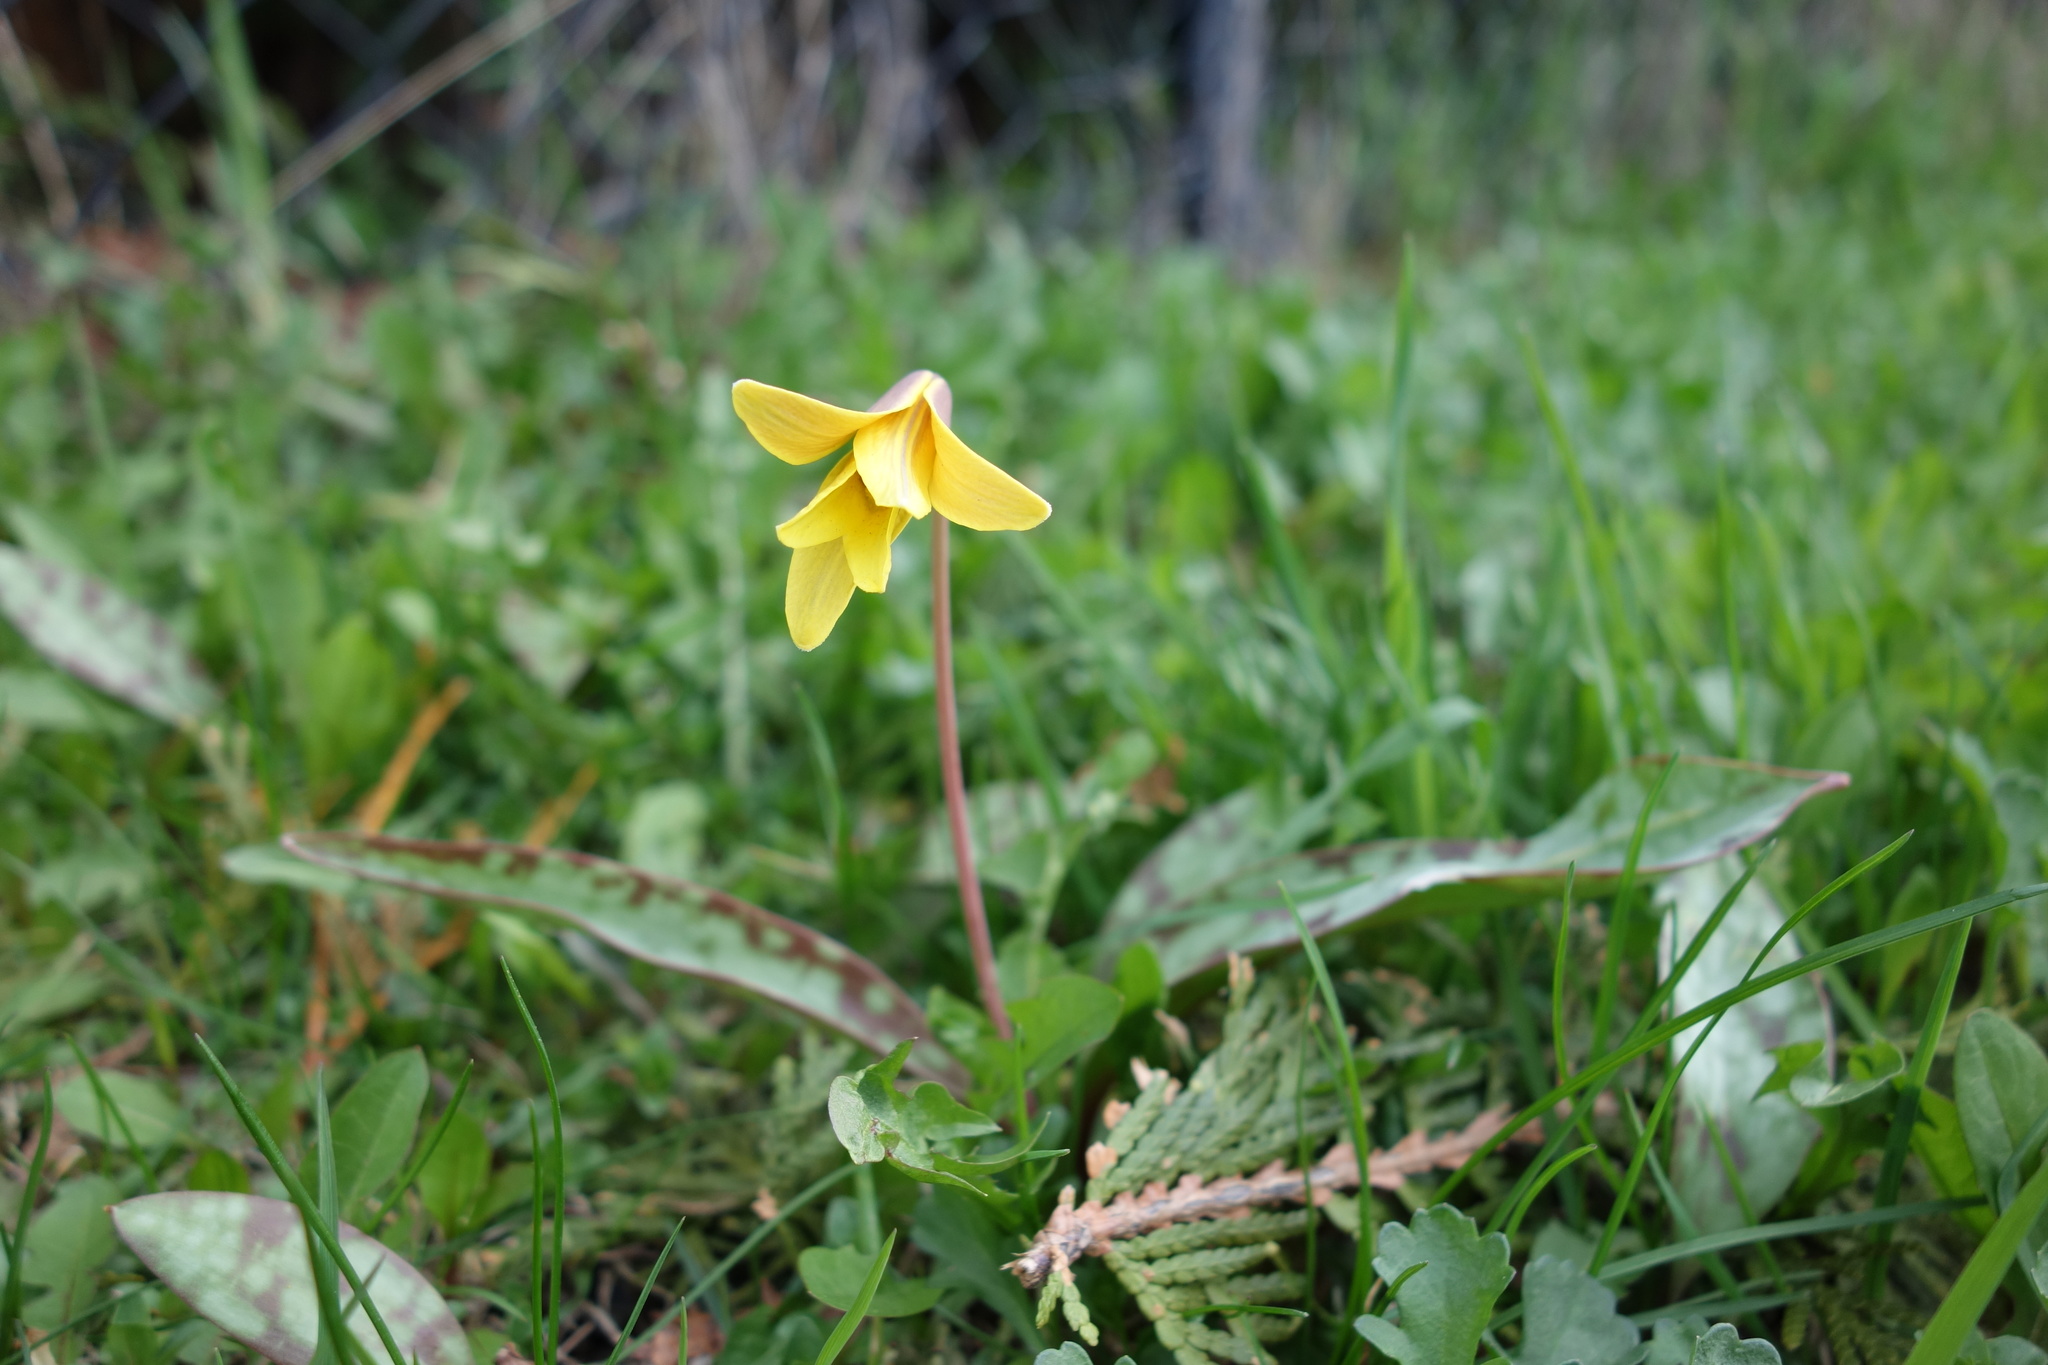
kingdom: Plantae
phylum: Tracheophyta
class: Liliopsida
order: Liliales
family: Liliaceae
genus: Erythronium
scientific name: Erythronium americanum
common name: Yellow adder's-tongue
